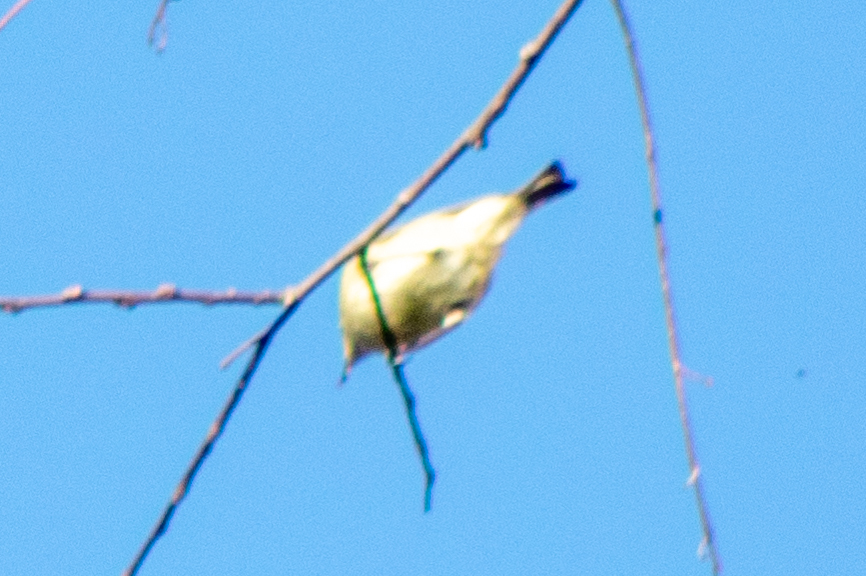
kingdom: Animalia
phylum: Chordata
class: Aves
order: Passeriformes
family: Regulidae
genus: Regulus
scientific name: Regulus calendula
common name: Ruby-crowned kinglet
